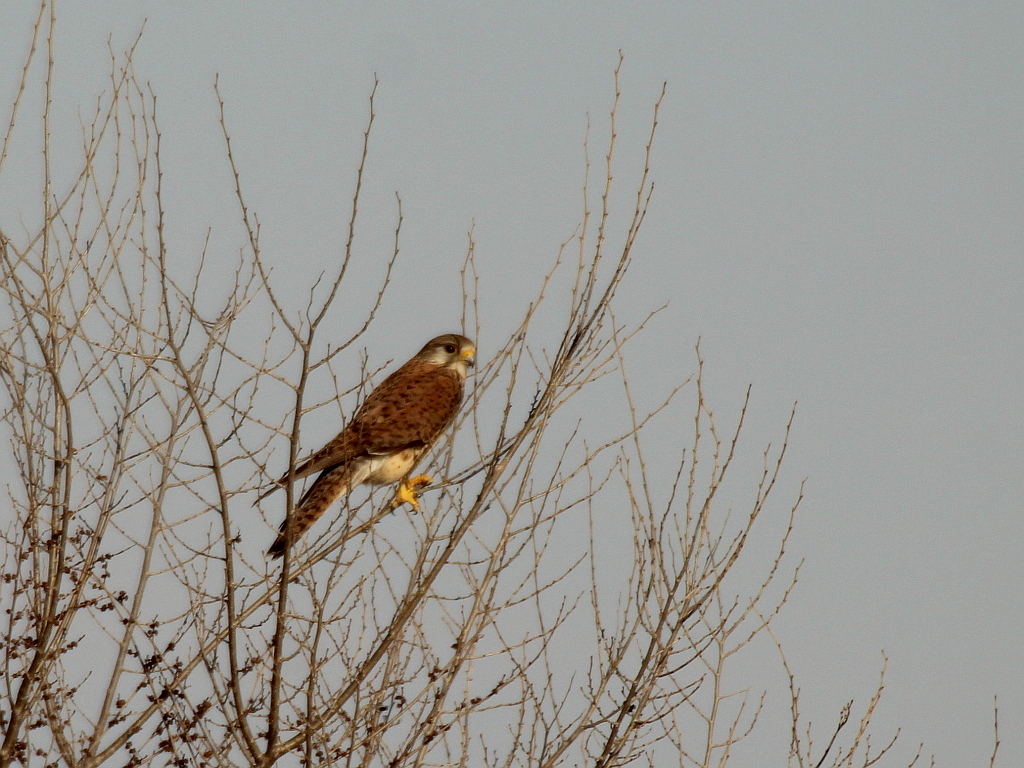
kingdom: Animalia
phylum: Chordata
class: Aves
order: Falconiformes
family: Falconidae
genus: Falco
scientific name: Falco tinnunculus
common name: Common kestrel
